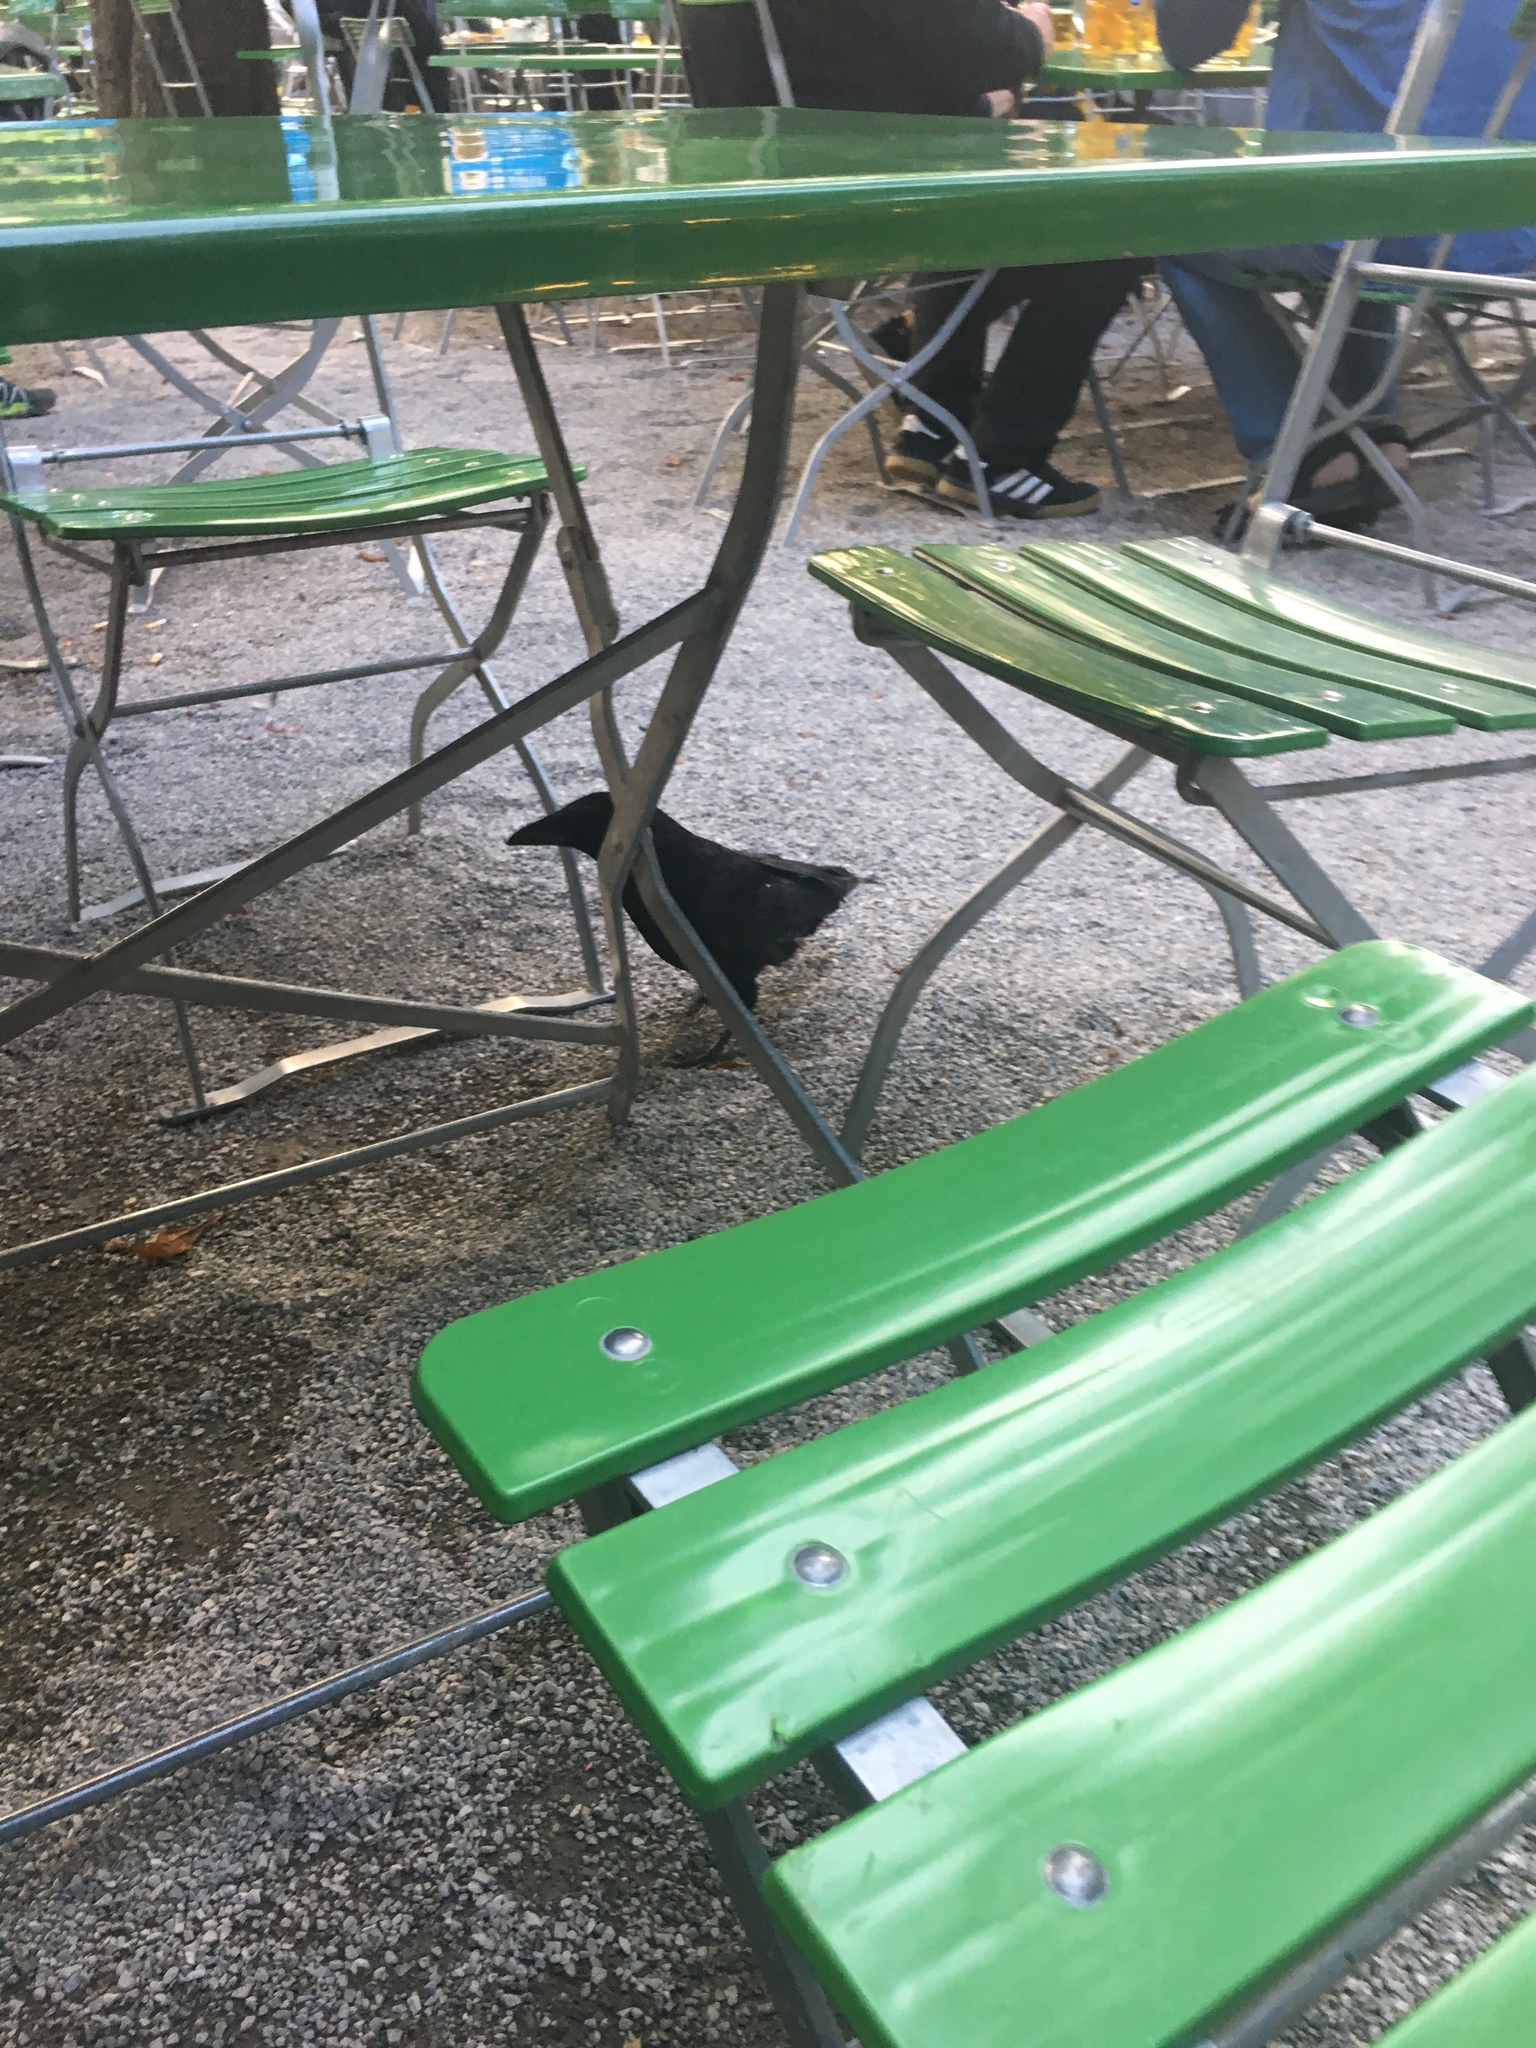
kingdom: Animalia
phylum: Chordata
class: Aves
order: Passeriformes
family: Corvidae
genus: Corvus
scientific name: Corvus corone
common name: Carrion crow
